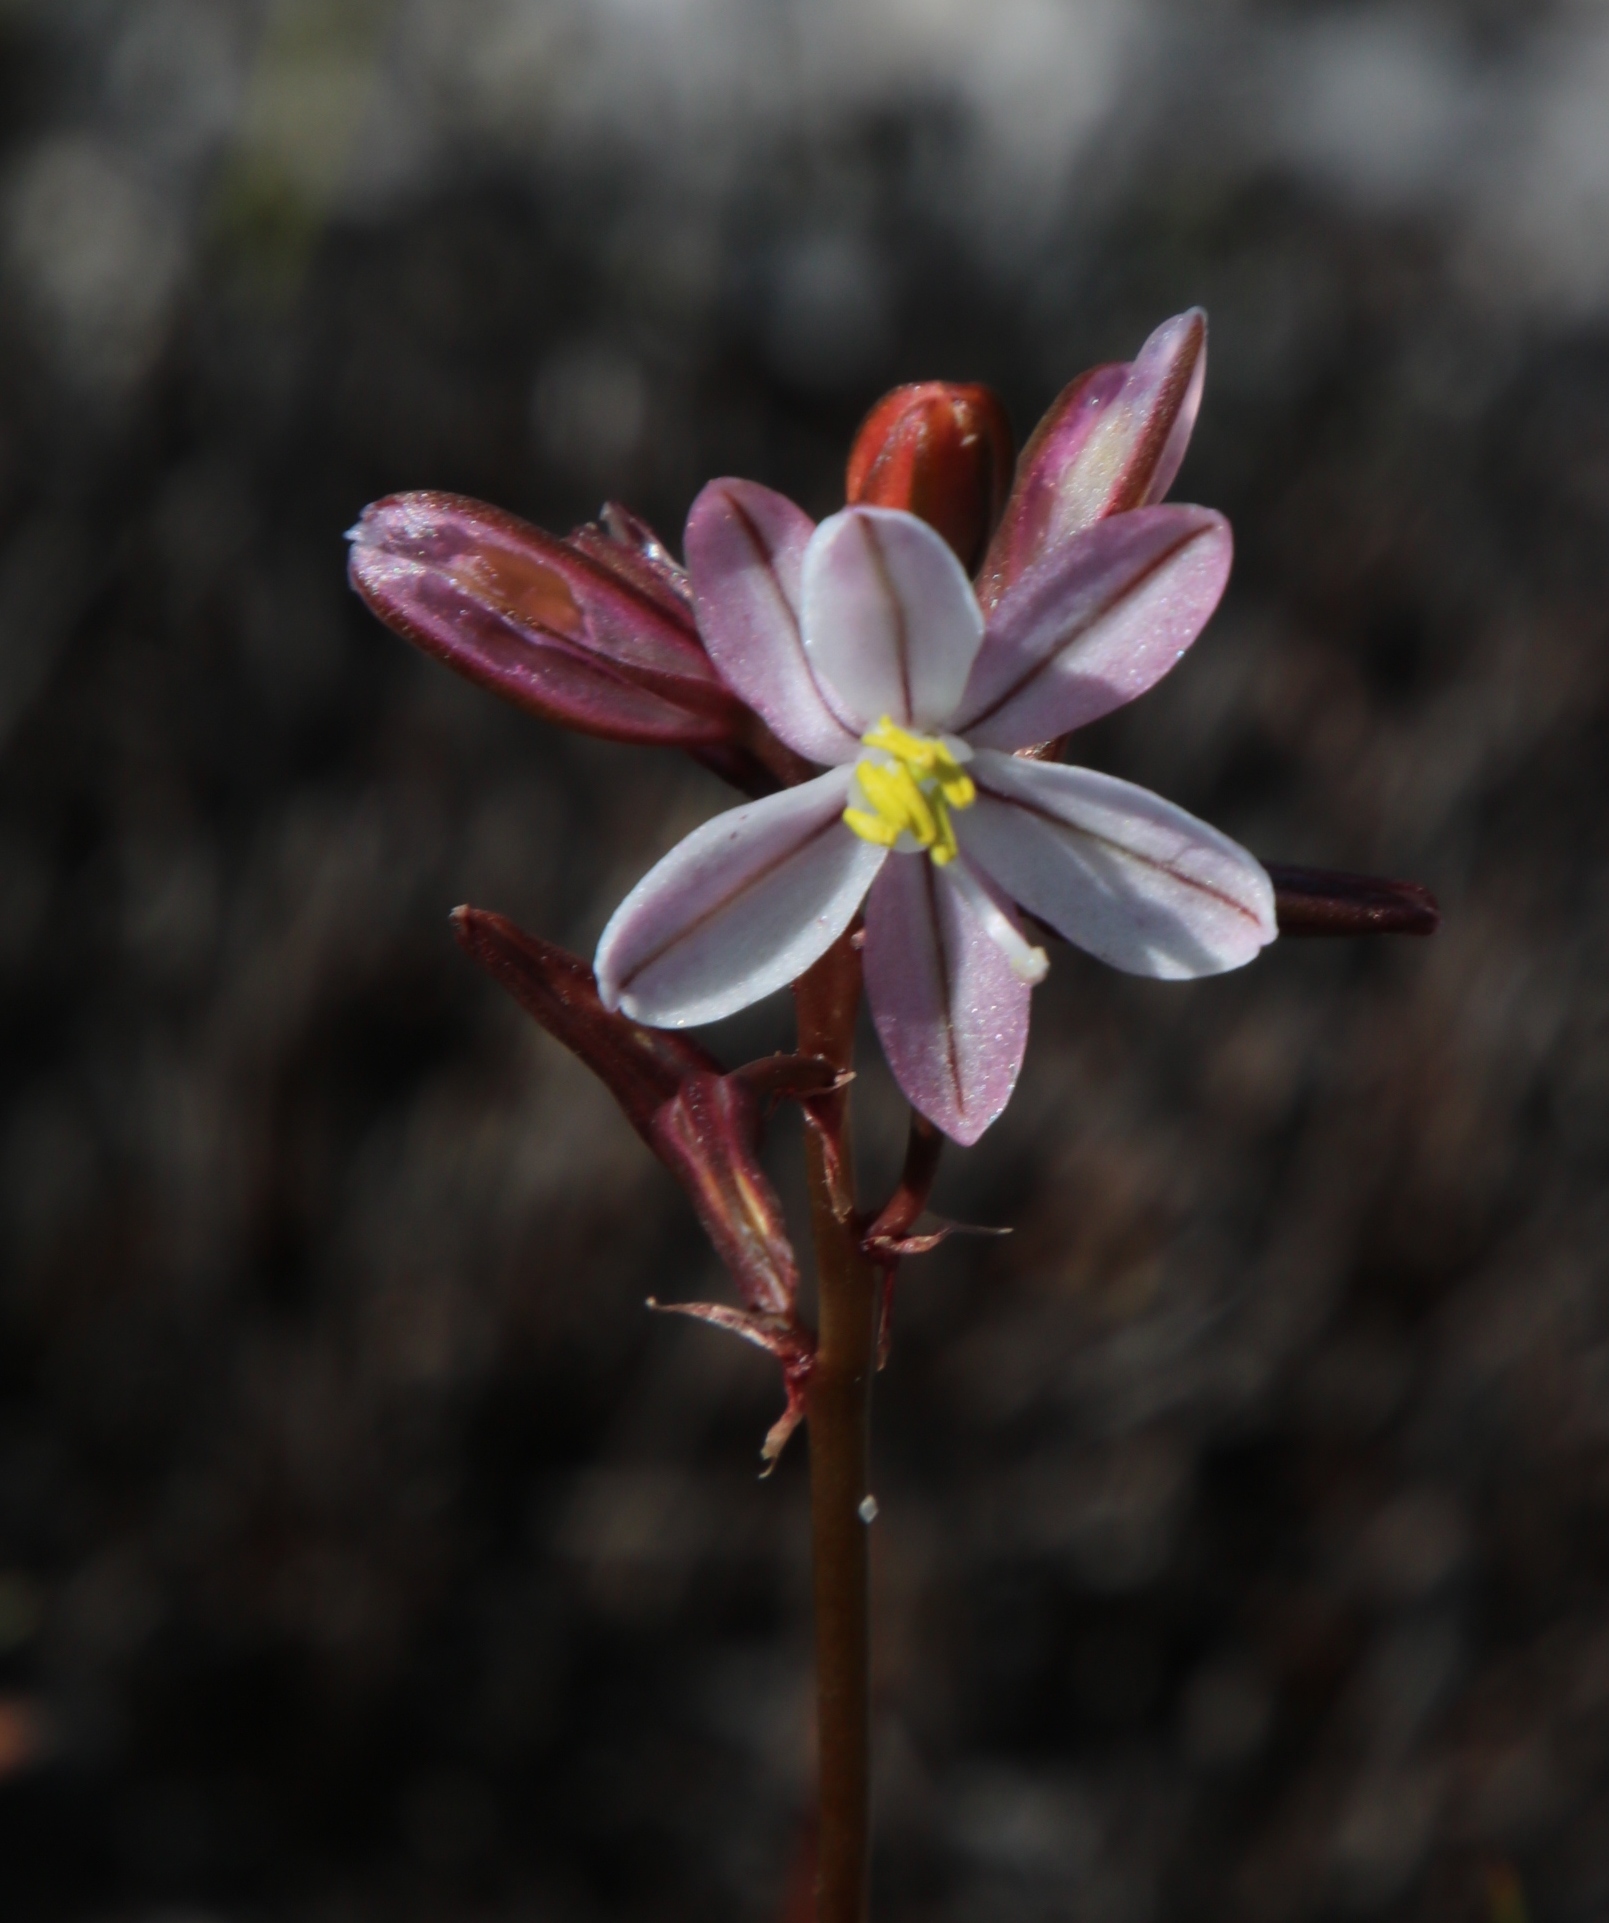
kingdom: Plantae
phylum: Tracheophyta
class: Liliopsida
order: Asparagales
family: Asparagaceae
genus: Drimia
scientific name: Drimia exuviata
